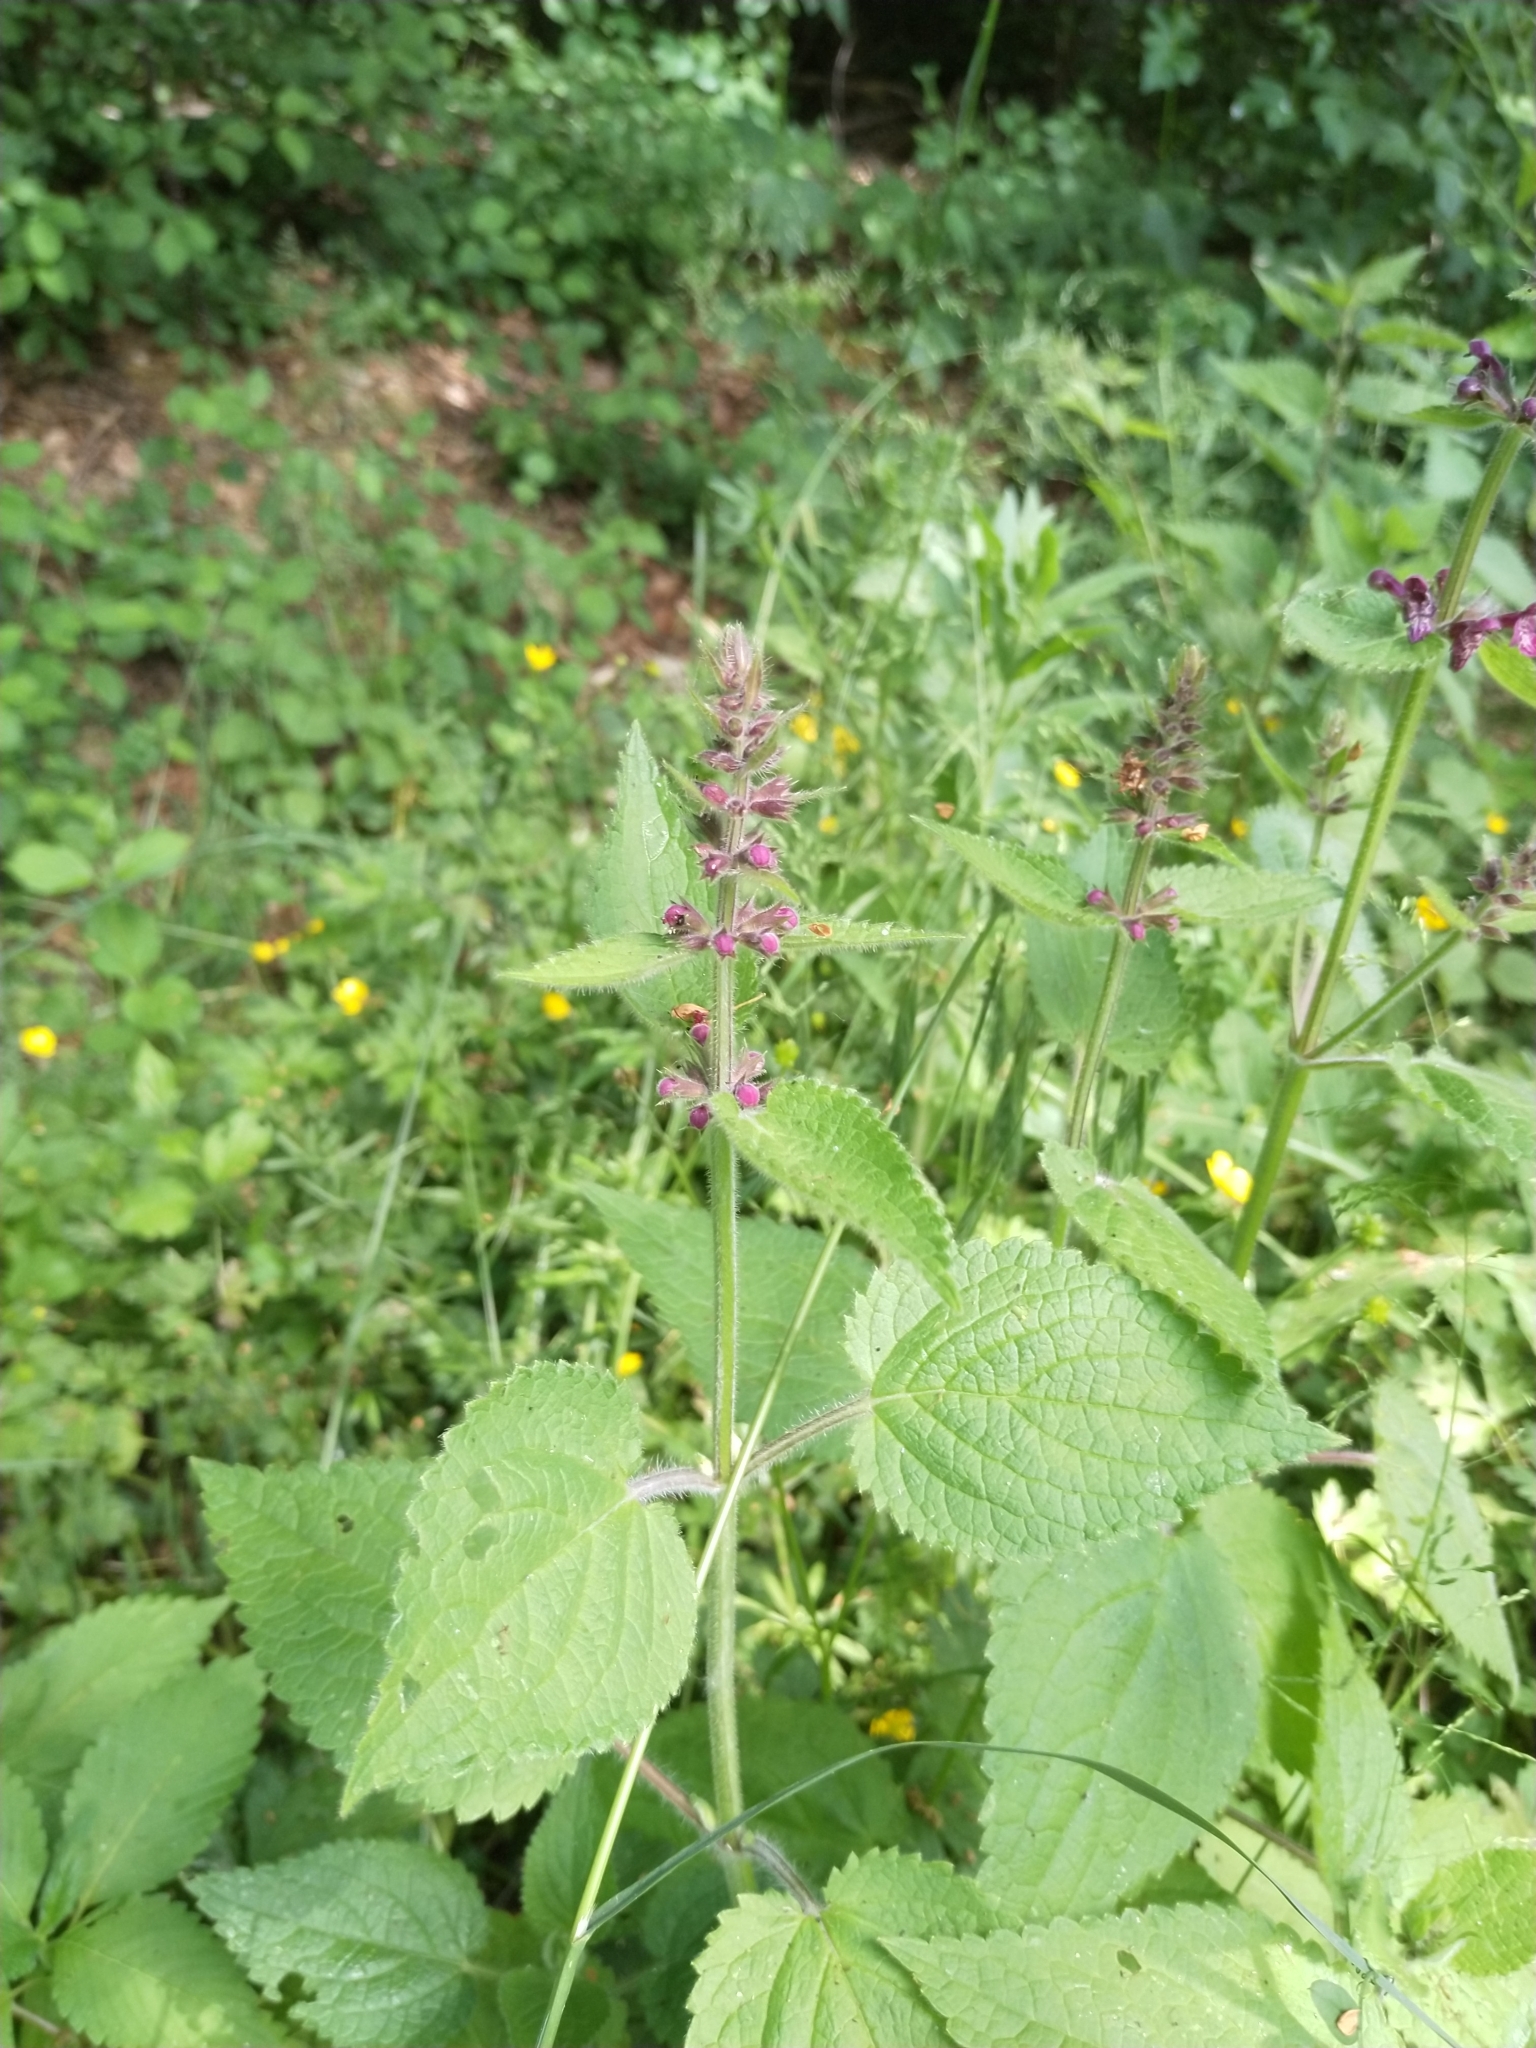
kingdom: Plantae
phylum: Tracheophyta
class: Magnoliopsida
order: Lamiales
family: Lamiaceae
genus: Stachys
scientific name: Stachys sylvatica
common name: Hedge woundwort
